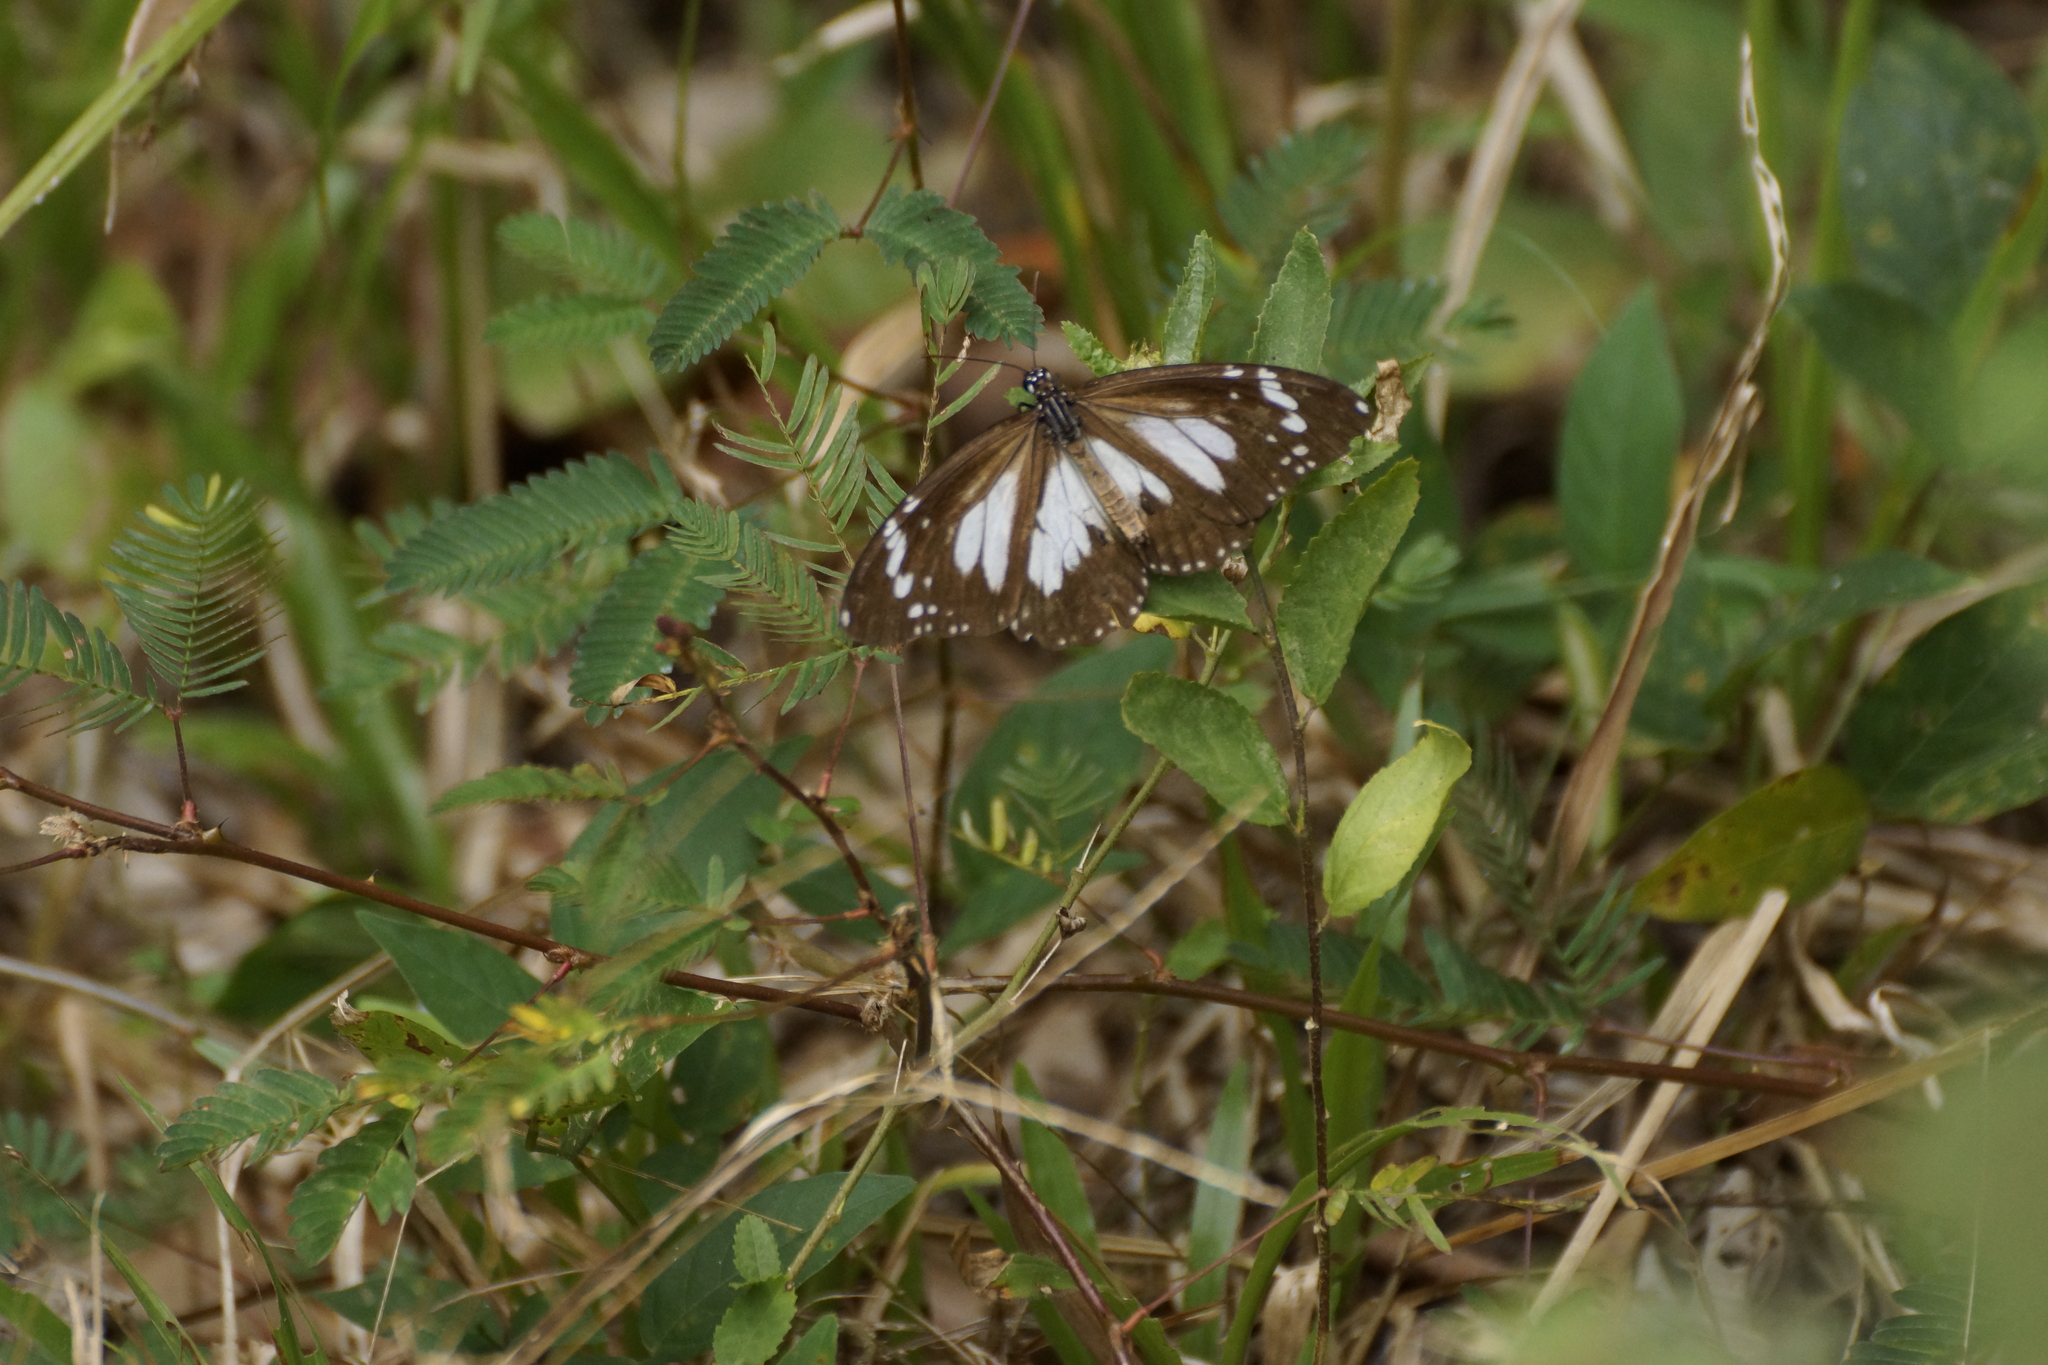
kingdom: Animalia
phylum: Arthropoda
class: Insecta
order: Lepidoptera
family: Nymphalidae
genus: Danaus
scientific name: Danaus affinis
